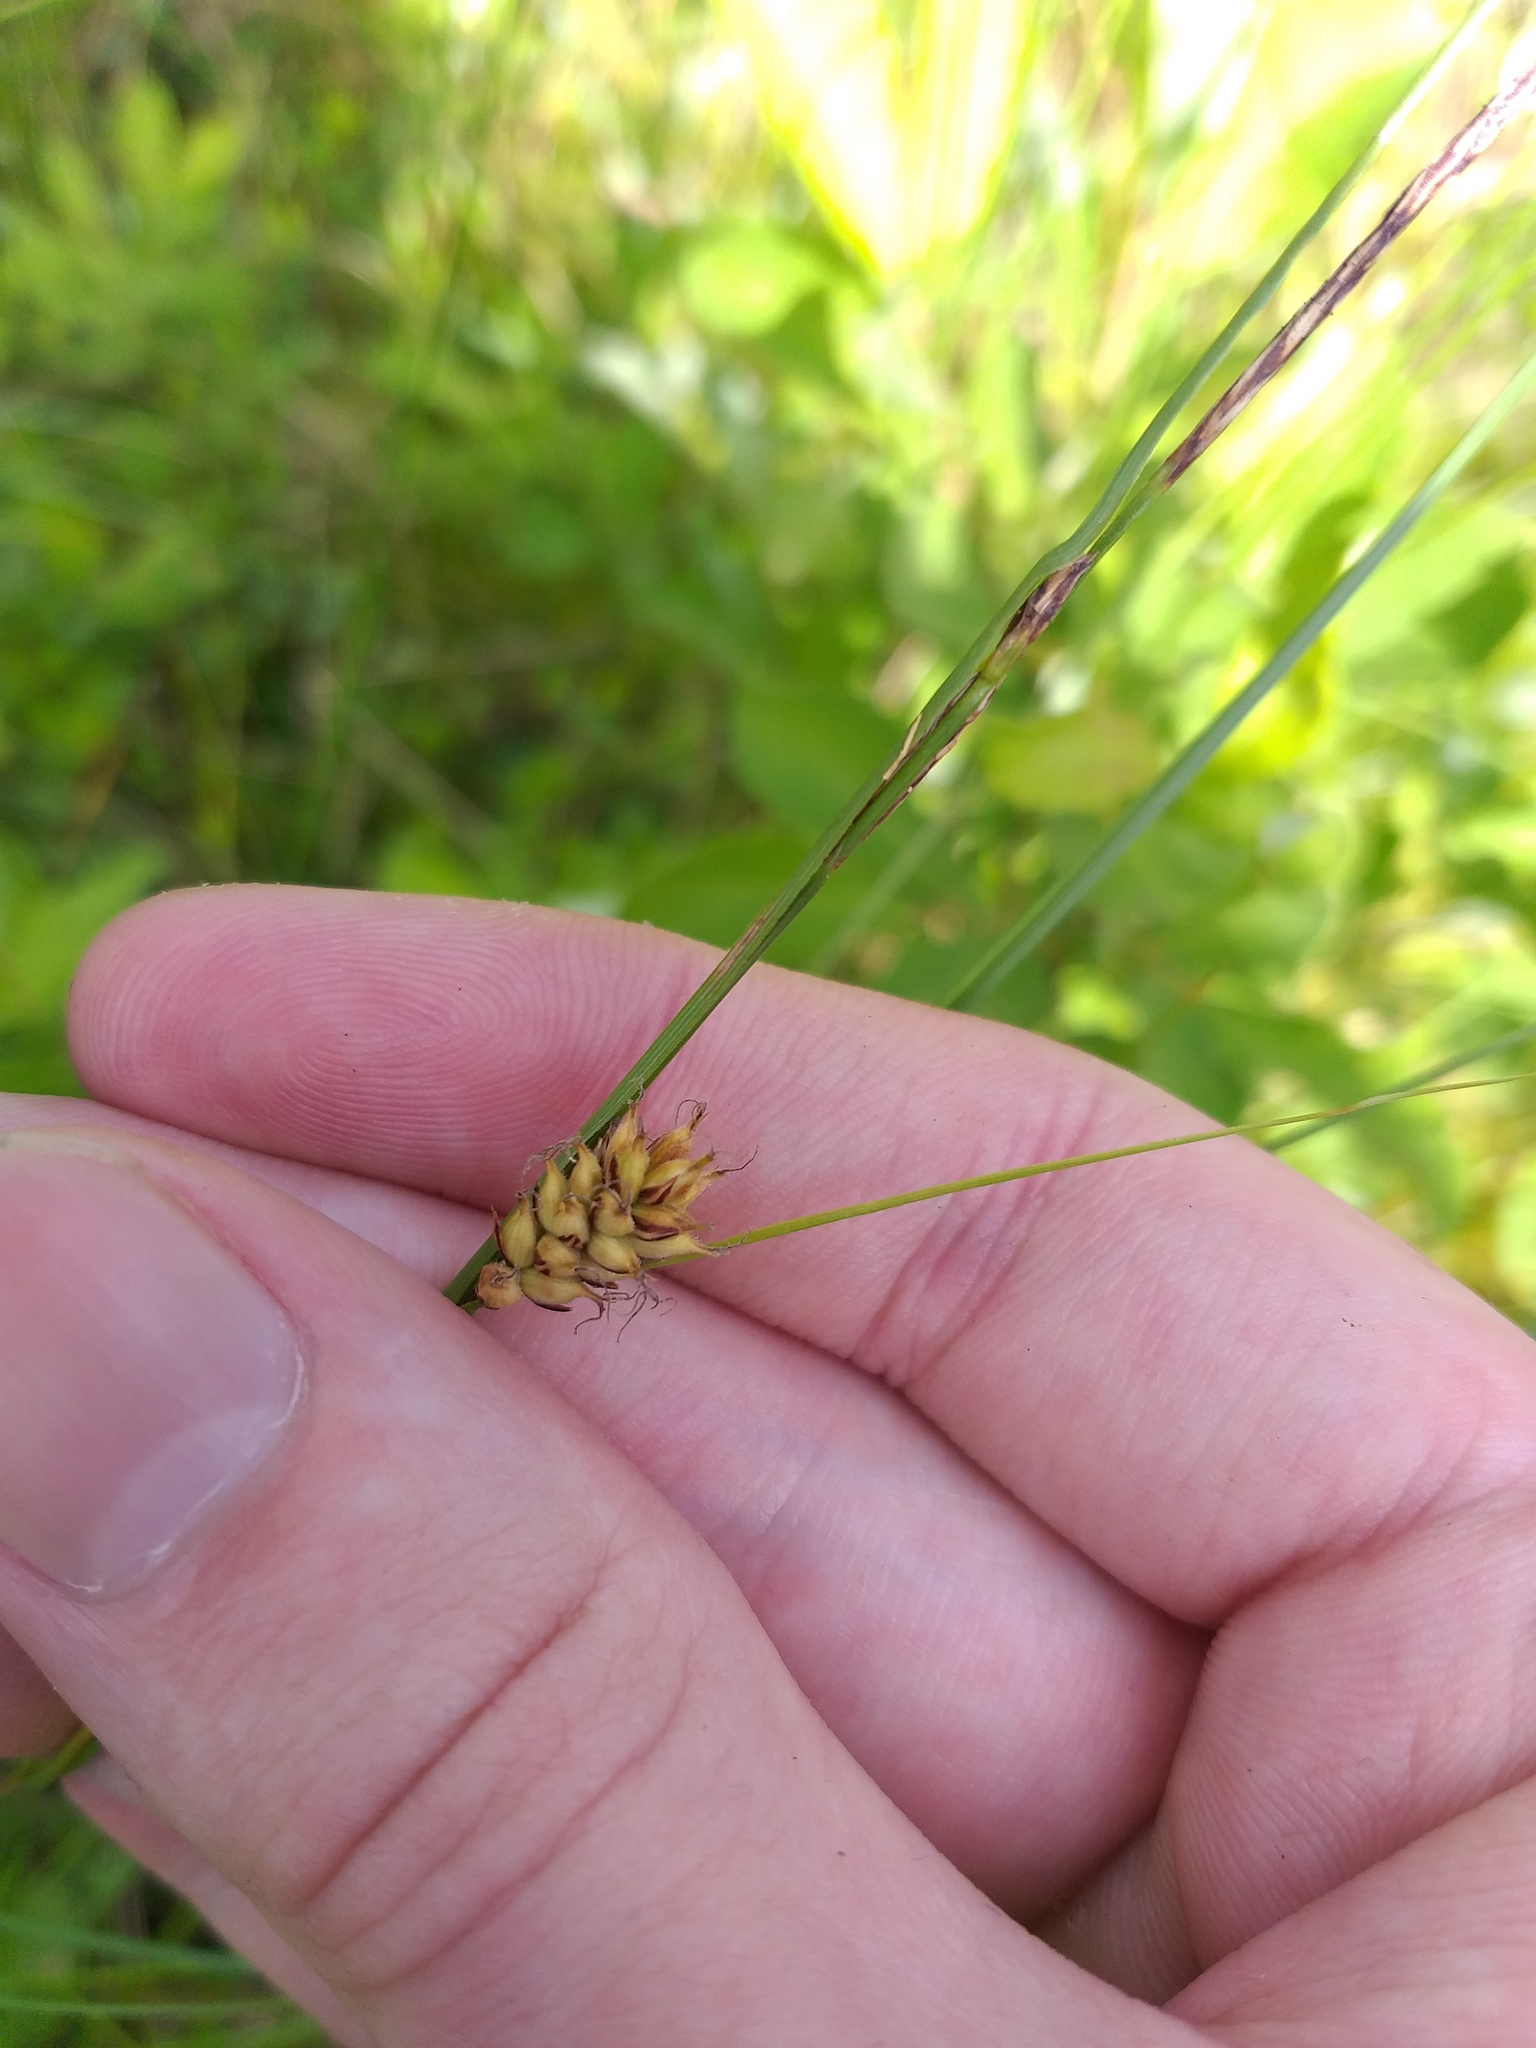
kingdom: Plantae
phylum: Tracheophyta
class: Liliopsida
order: Poales
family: Cyperaceae
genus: Carex
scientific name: Carex lasiocarpa
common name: Slender sedge
